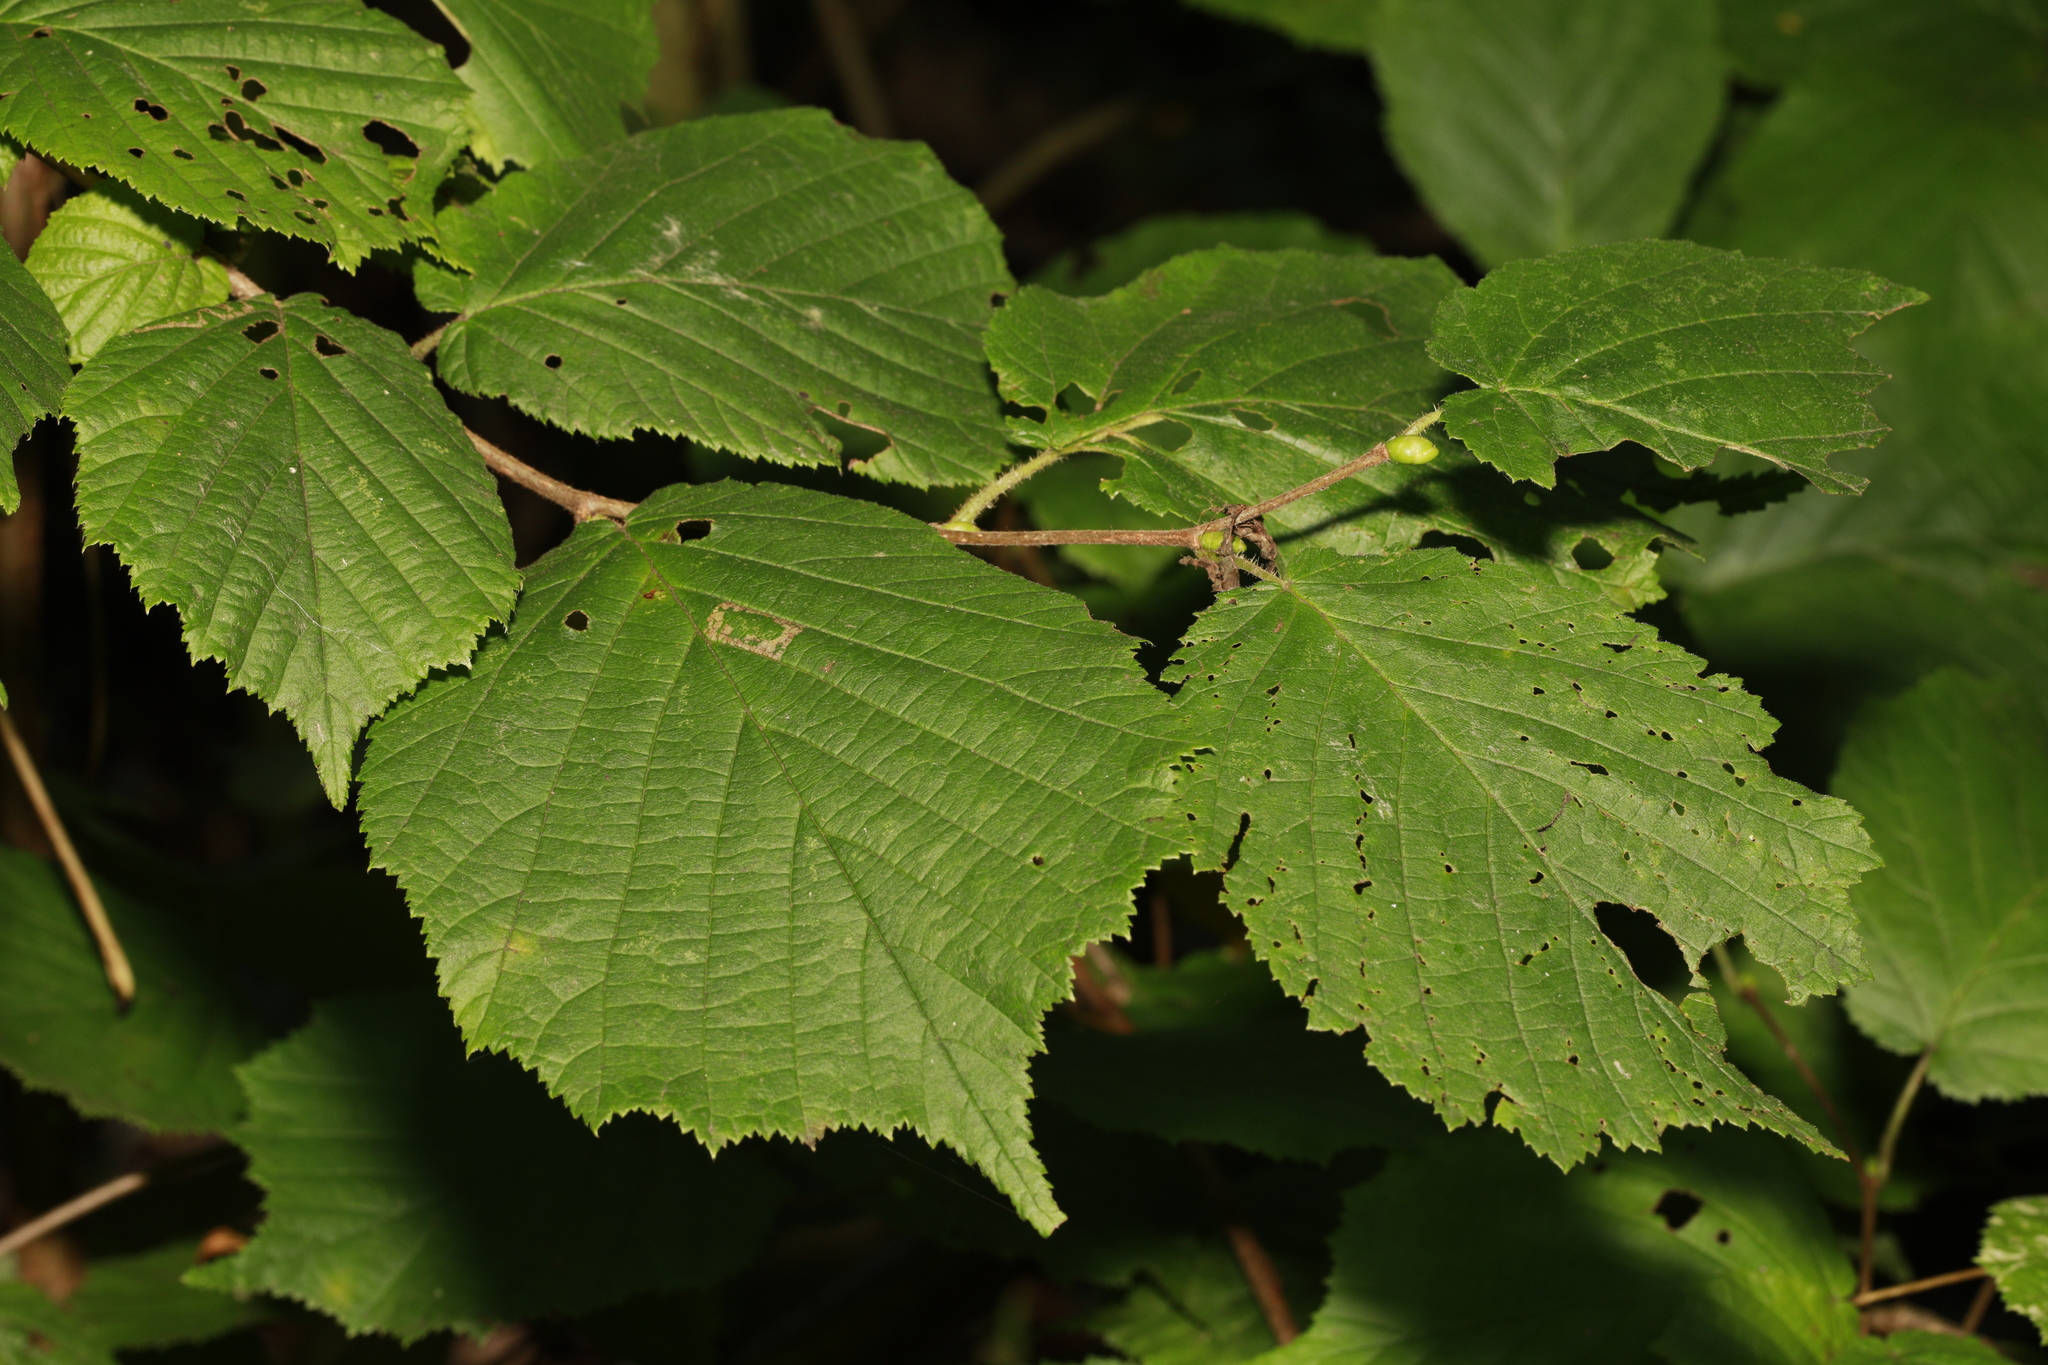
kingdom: Plantae
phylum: Tracheophyta
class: Magnoliopsida
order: Fagales
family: Betulaceae
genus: Corylus
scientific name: Corylus avellana
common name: European hazel
